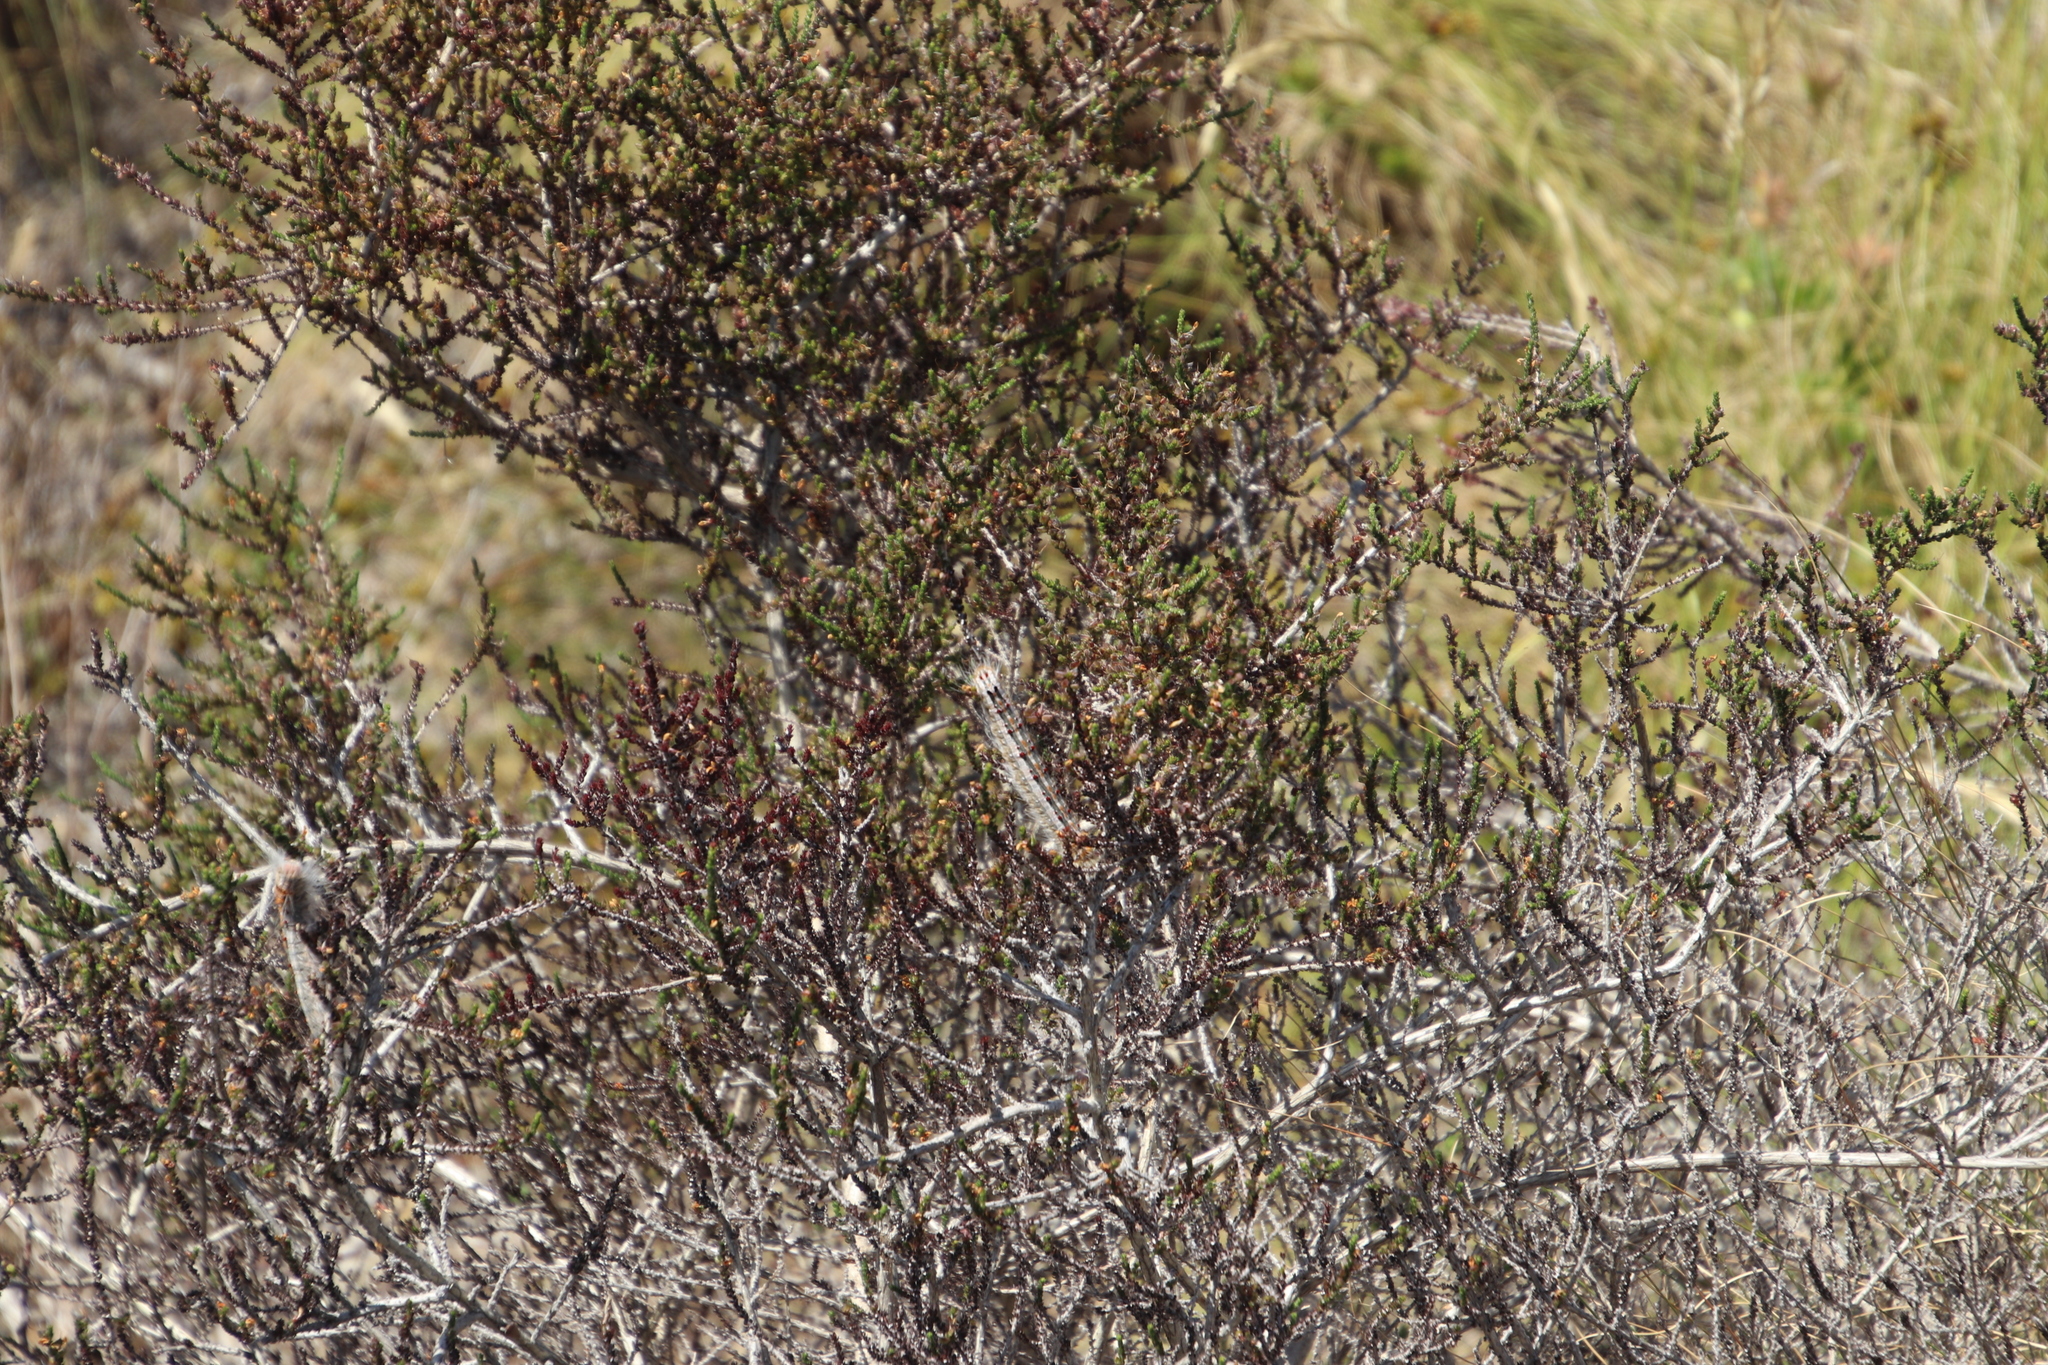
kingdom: Animalia
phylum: Arthropoda
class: Insecta
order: Lepidoptera
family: Lasiocampidae
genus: Streblote
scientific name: Streblote cristata
